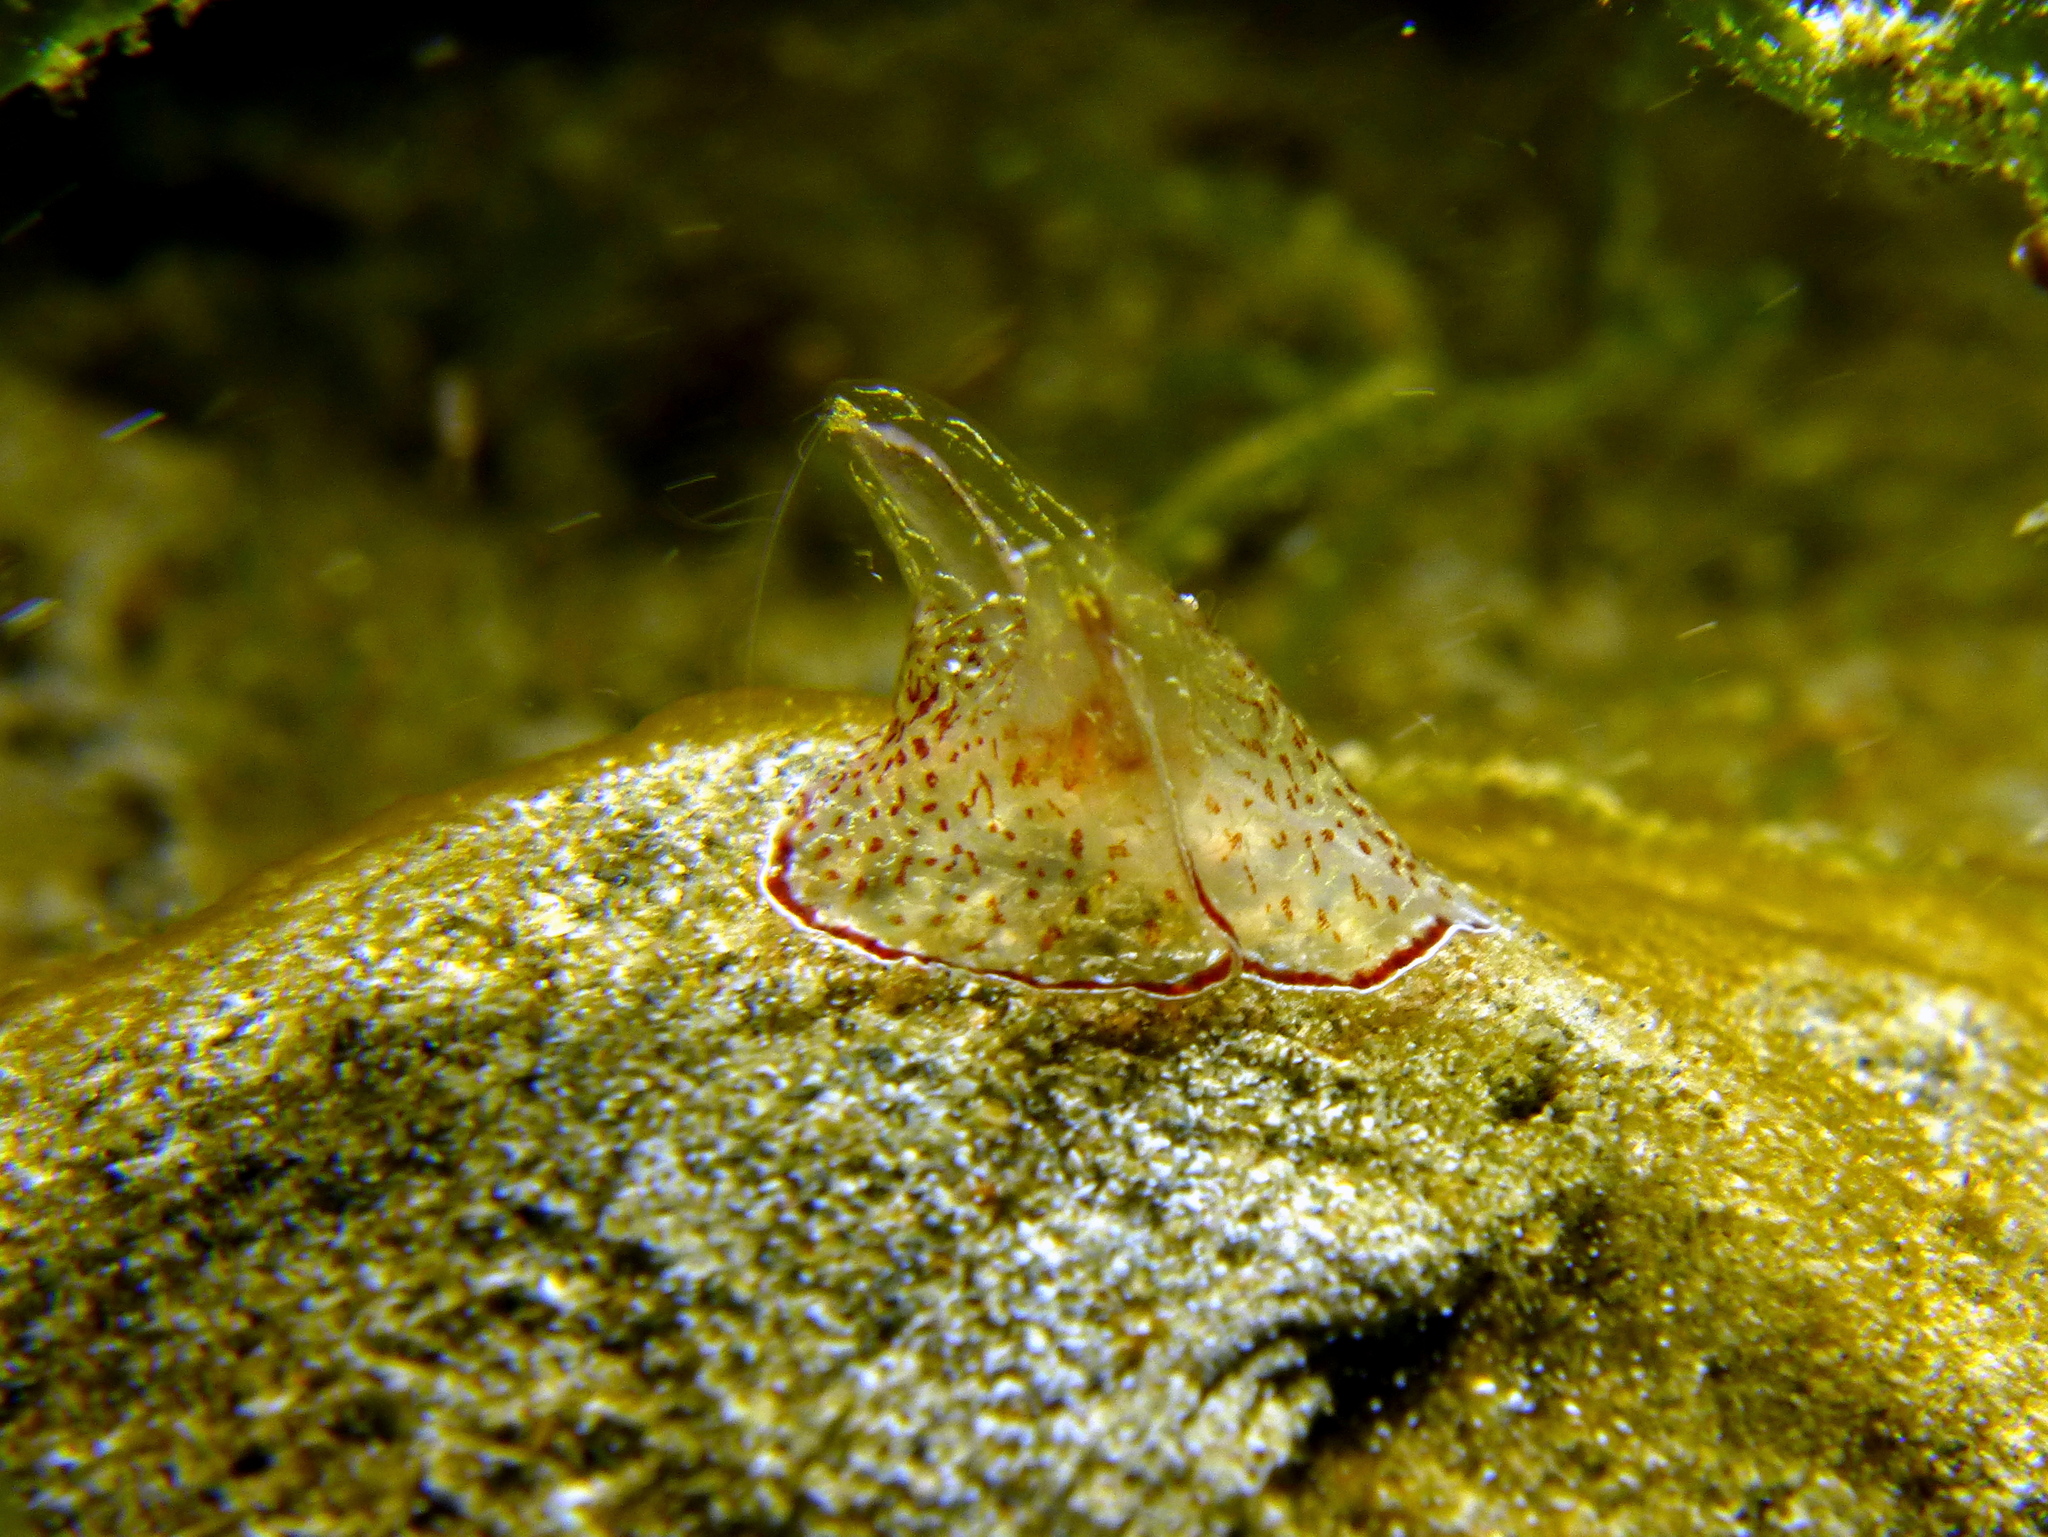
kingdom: Animalia
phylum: Ctenophora
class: Tentaculata
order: Platyctenida
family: Coeloplanidae
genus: Coeloplana
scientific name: Coeloplana meteoris
